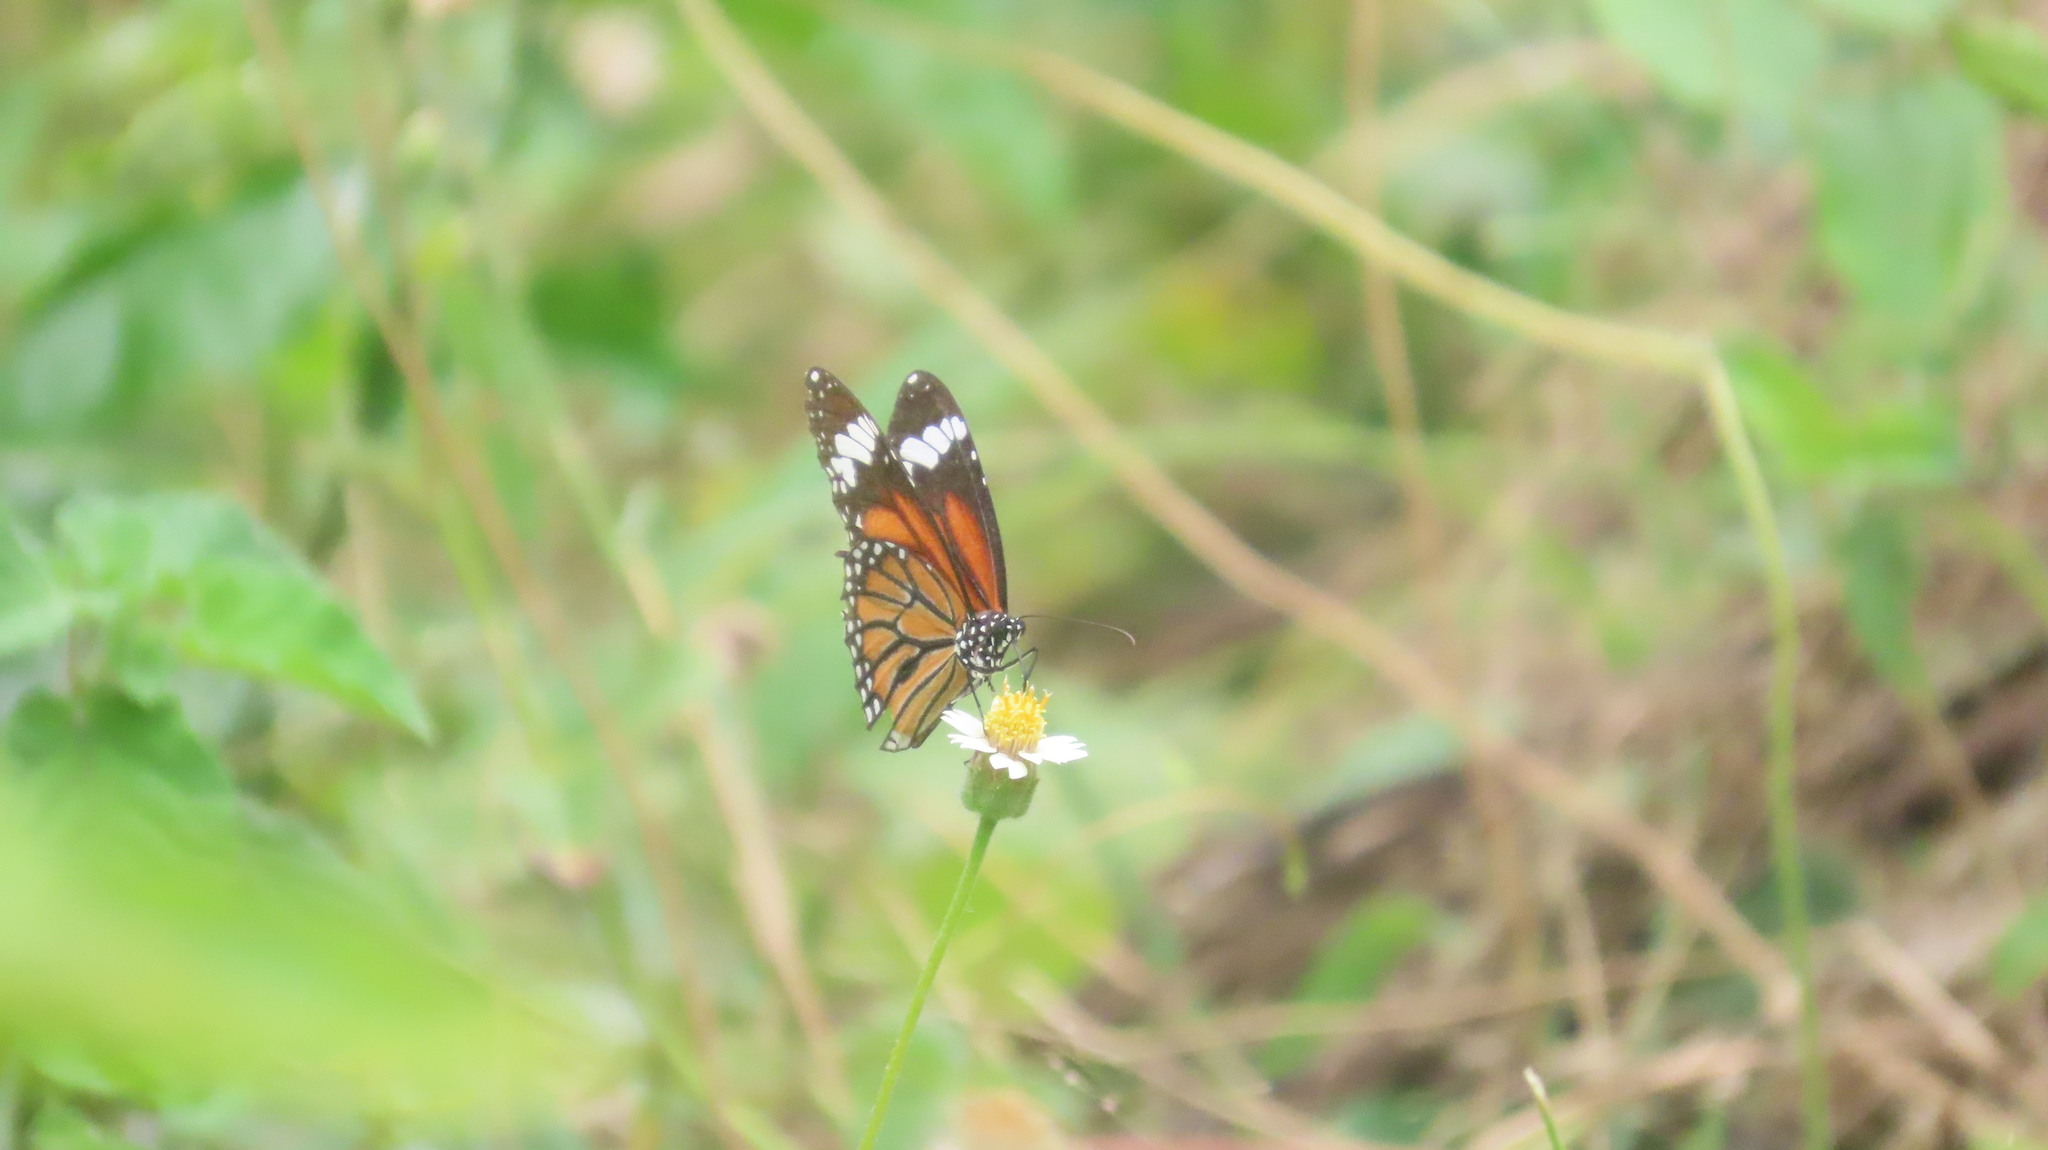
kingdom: Animalia
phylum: Arthropoda
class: Insecta
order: Lepidoptera
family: Nymphalidae
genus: Danaus
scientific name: Danaus genutia
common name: Common tiger butterfly
